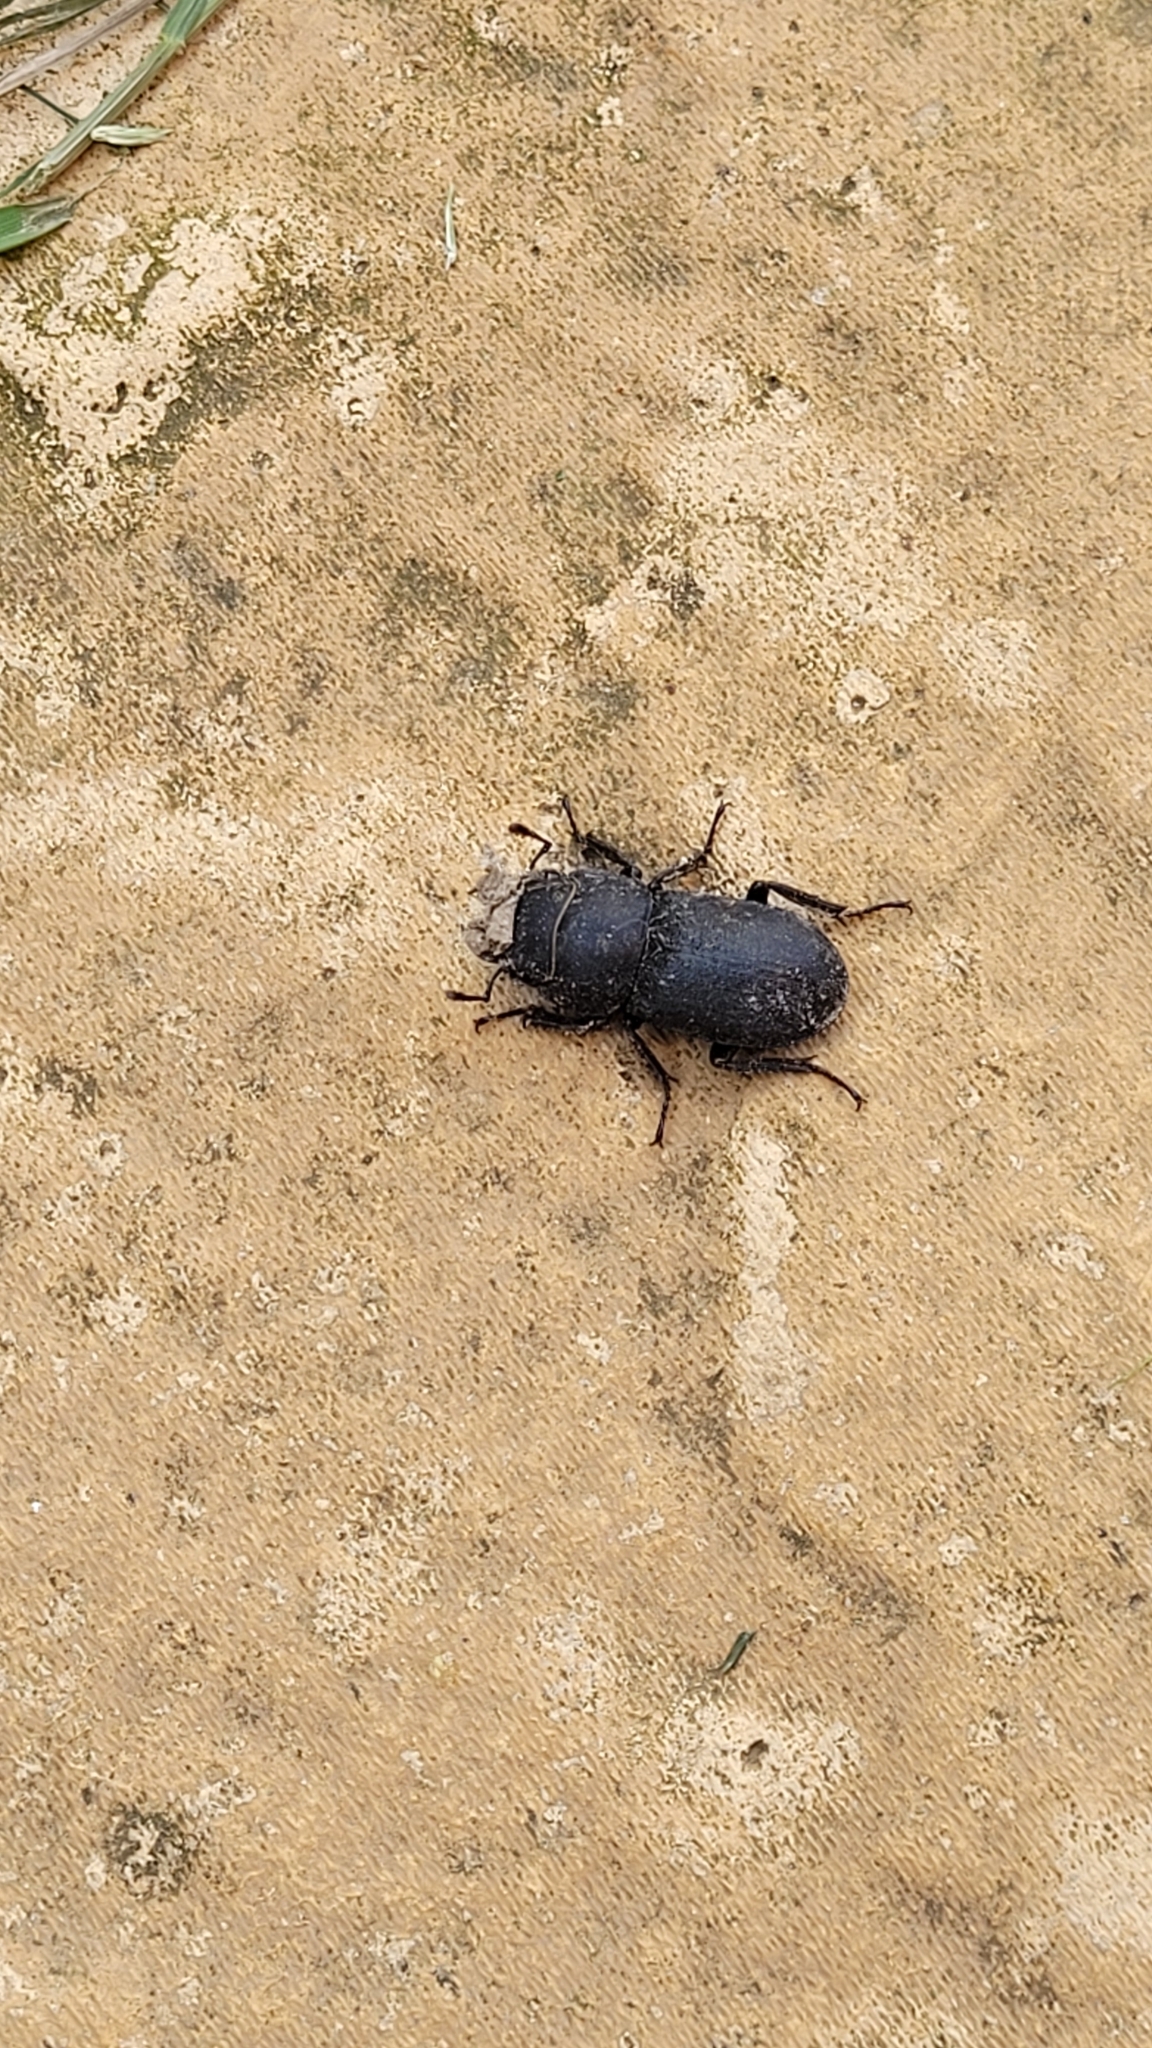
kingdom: Animalia
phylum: Arthropoda
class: Insecta
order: Coleoptera
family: Lucanidae
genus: Dorcus
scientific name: Dorcus parallelipipedus
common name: Lesser stag beetle
